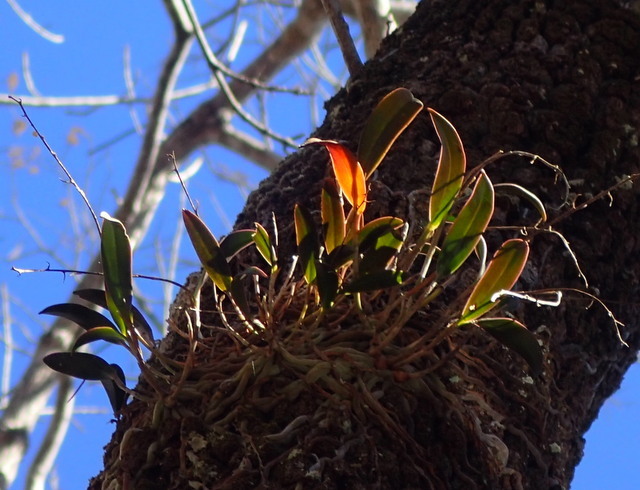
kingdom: Plantae
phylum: Tracheophyta
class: Liliopsida
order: Asparagales
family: Orchidaceae
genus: Epidendrum
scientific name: Epidendrum conopseum
